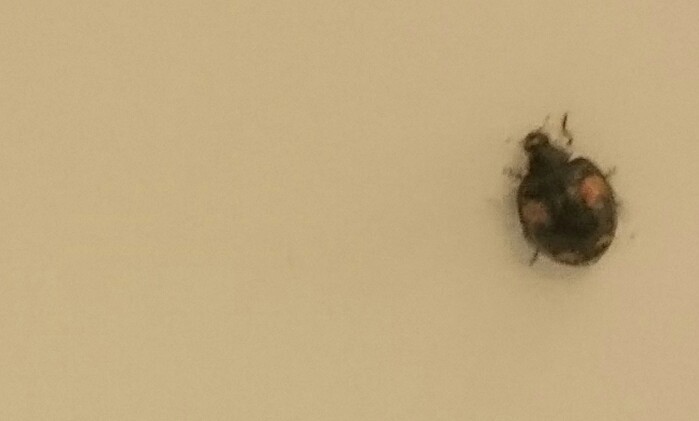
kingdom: Animalia
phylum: Arthropoda
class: Insecta
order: Coleoptera
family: Coccinellidae
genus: Harmonia
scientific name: Harmonia axyridis
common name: Harlequin ladybird
